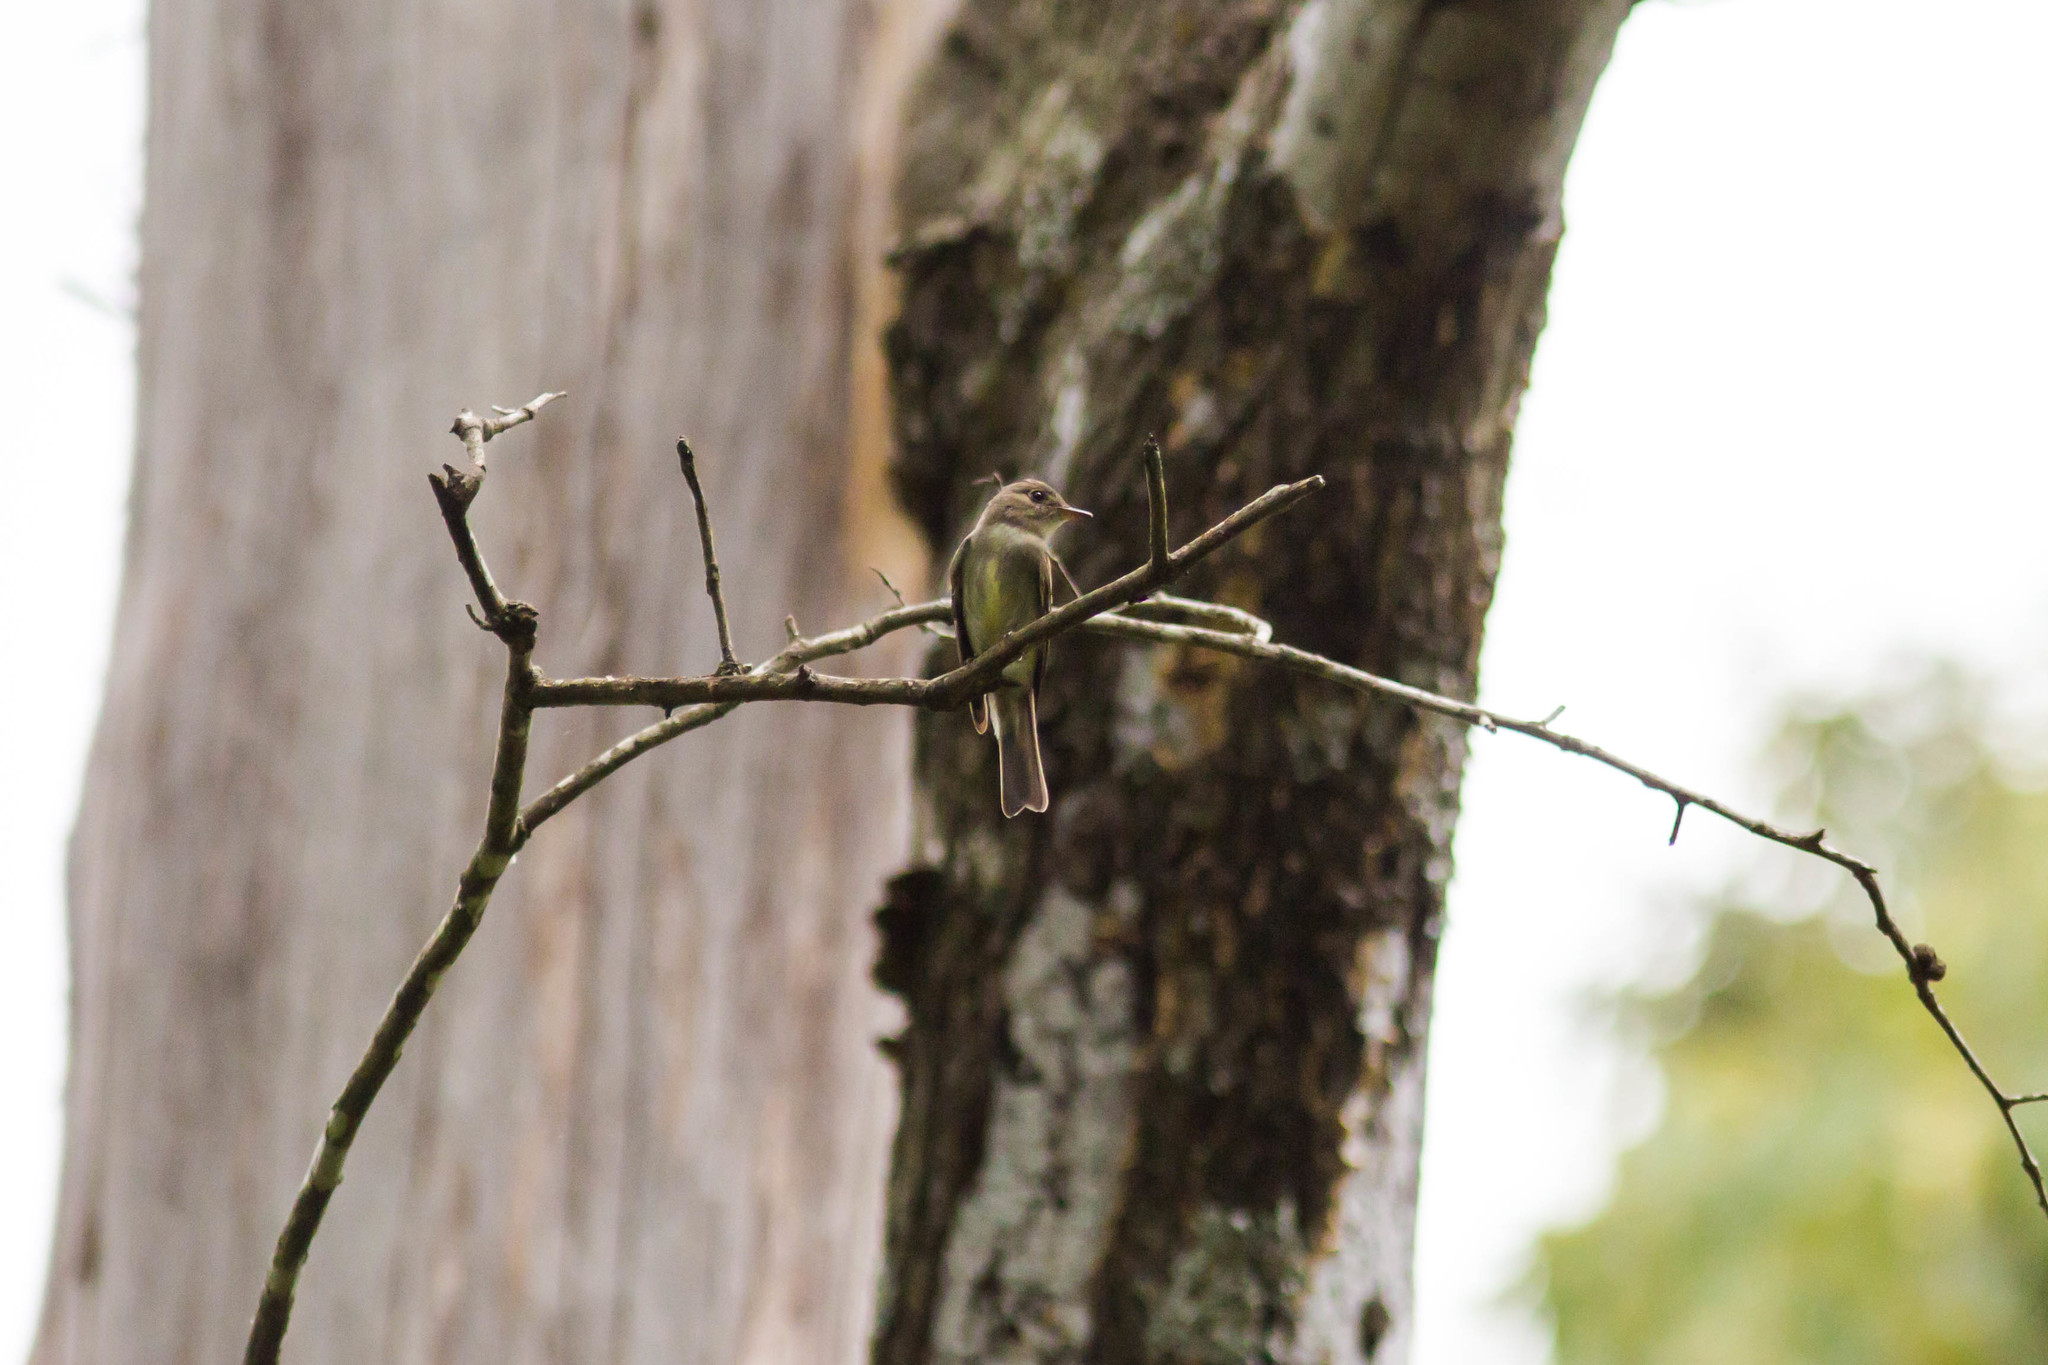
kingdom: Animalia
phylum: Chordata
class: Aves
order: Passeriformes
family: Tyrannidae
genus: Contopus
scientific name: Contopus virens
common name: Eastern wood-pewee
